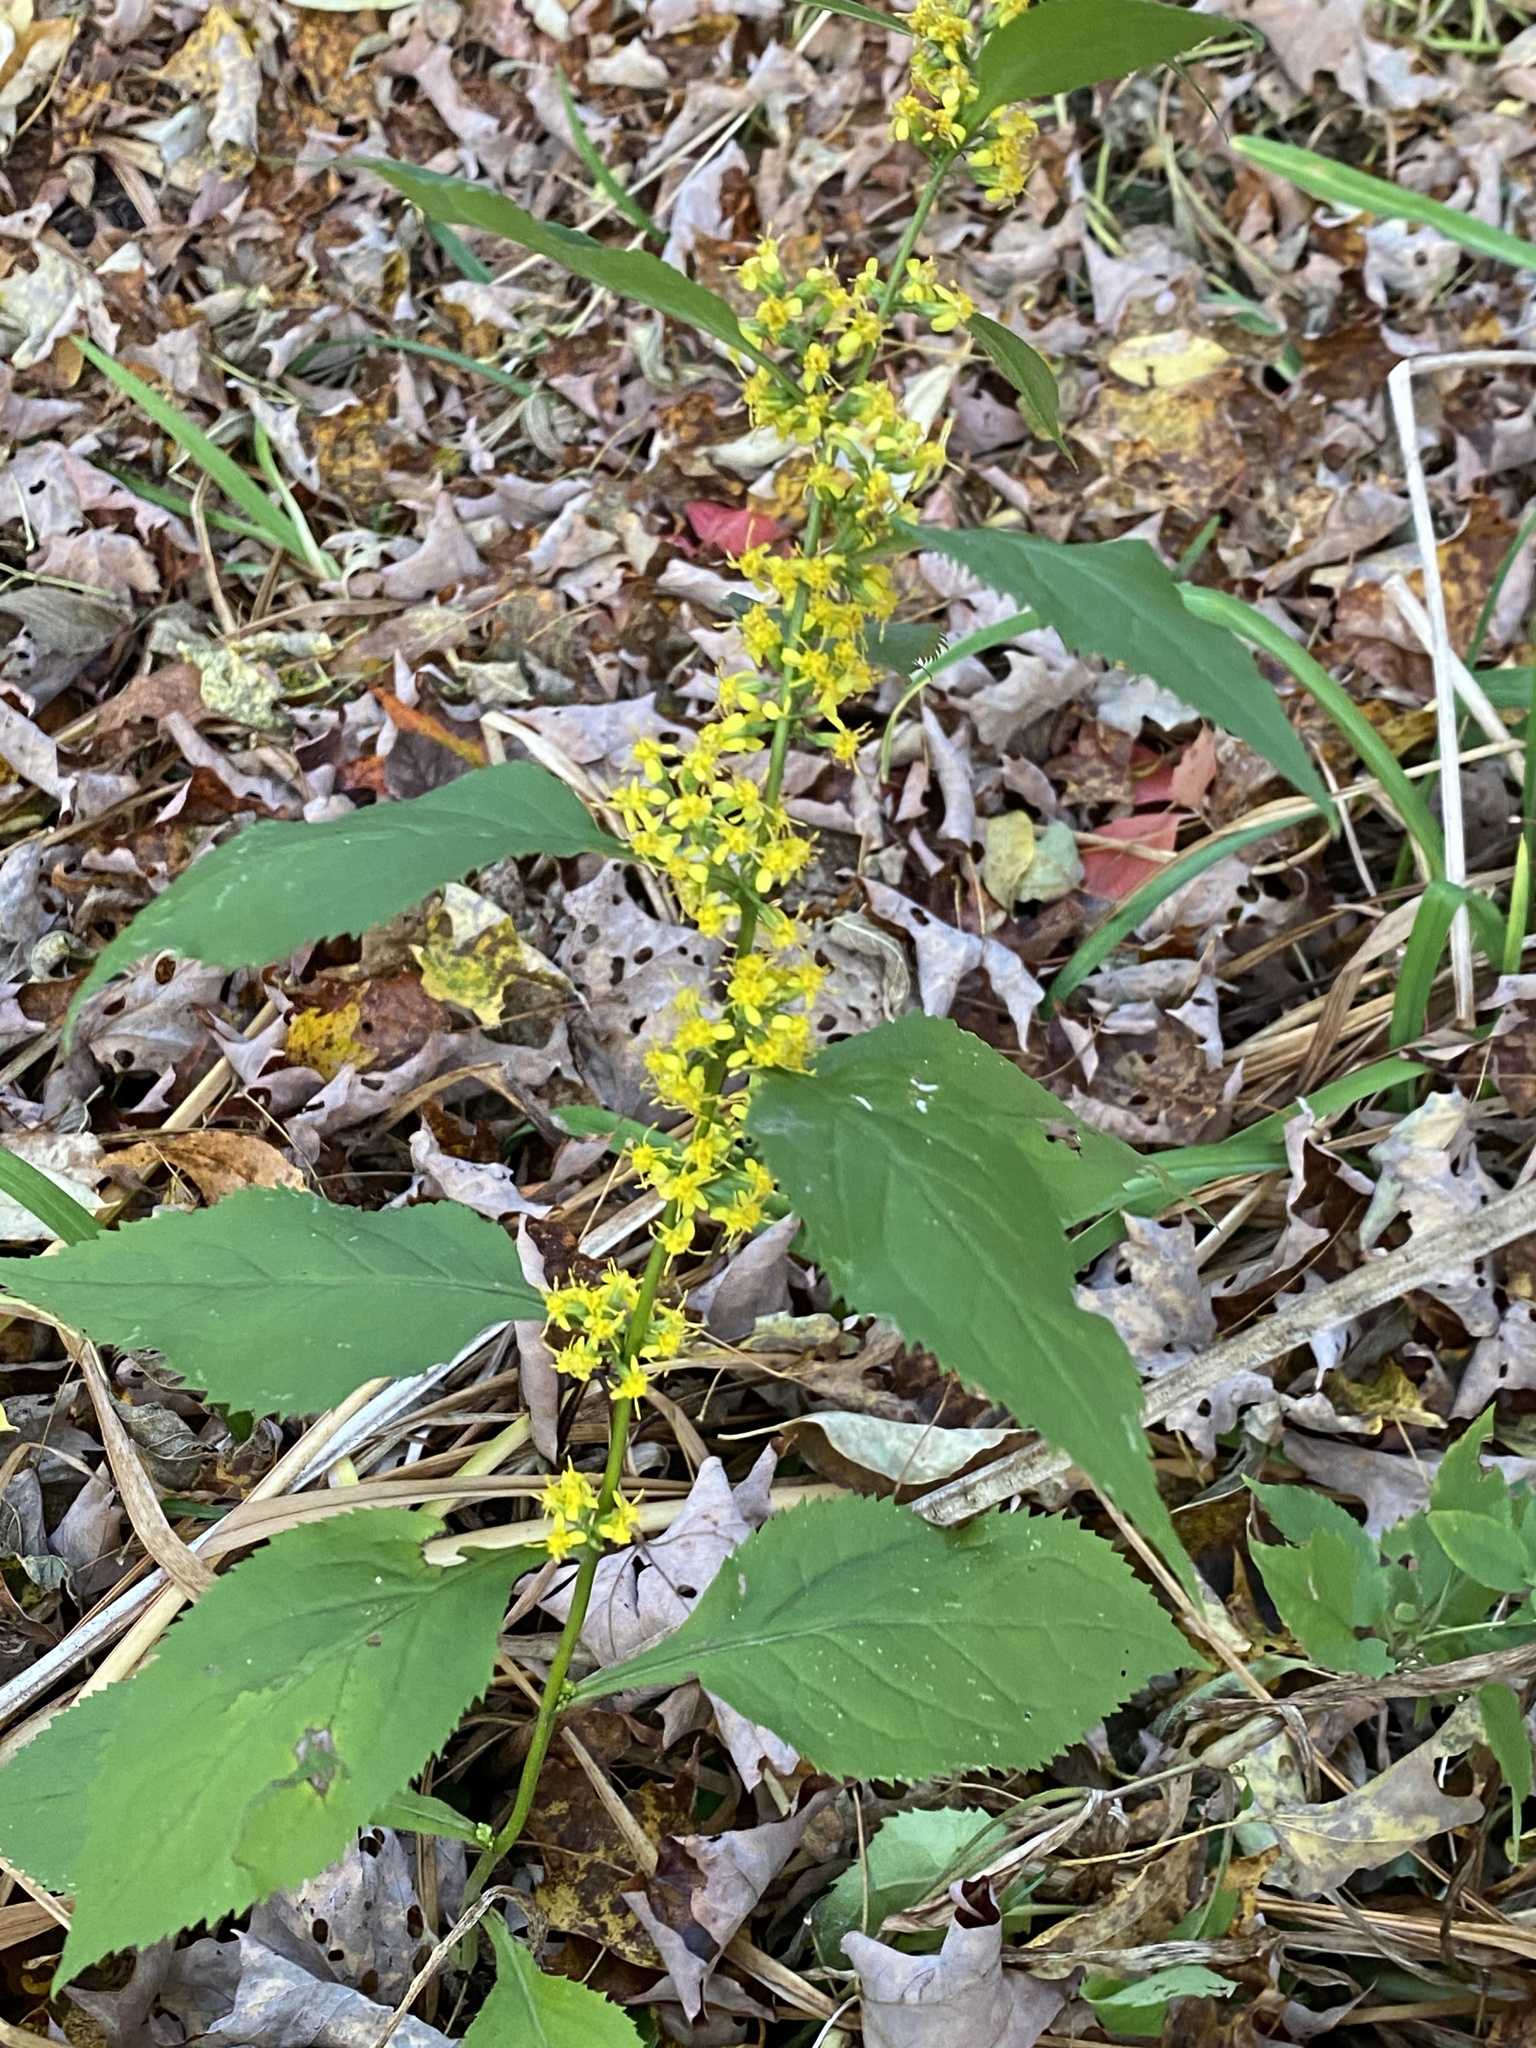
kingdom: Plantae
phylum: Tracheophyta
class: Magnoliopsida
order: Asterales
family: Asteraceae
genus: Solidago
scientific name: Solidago flexicaulis
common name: Zig-zag goldenrod
